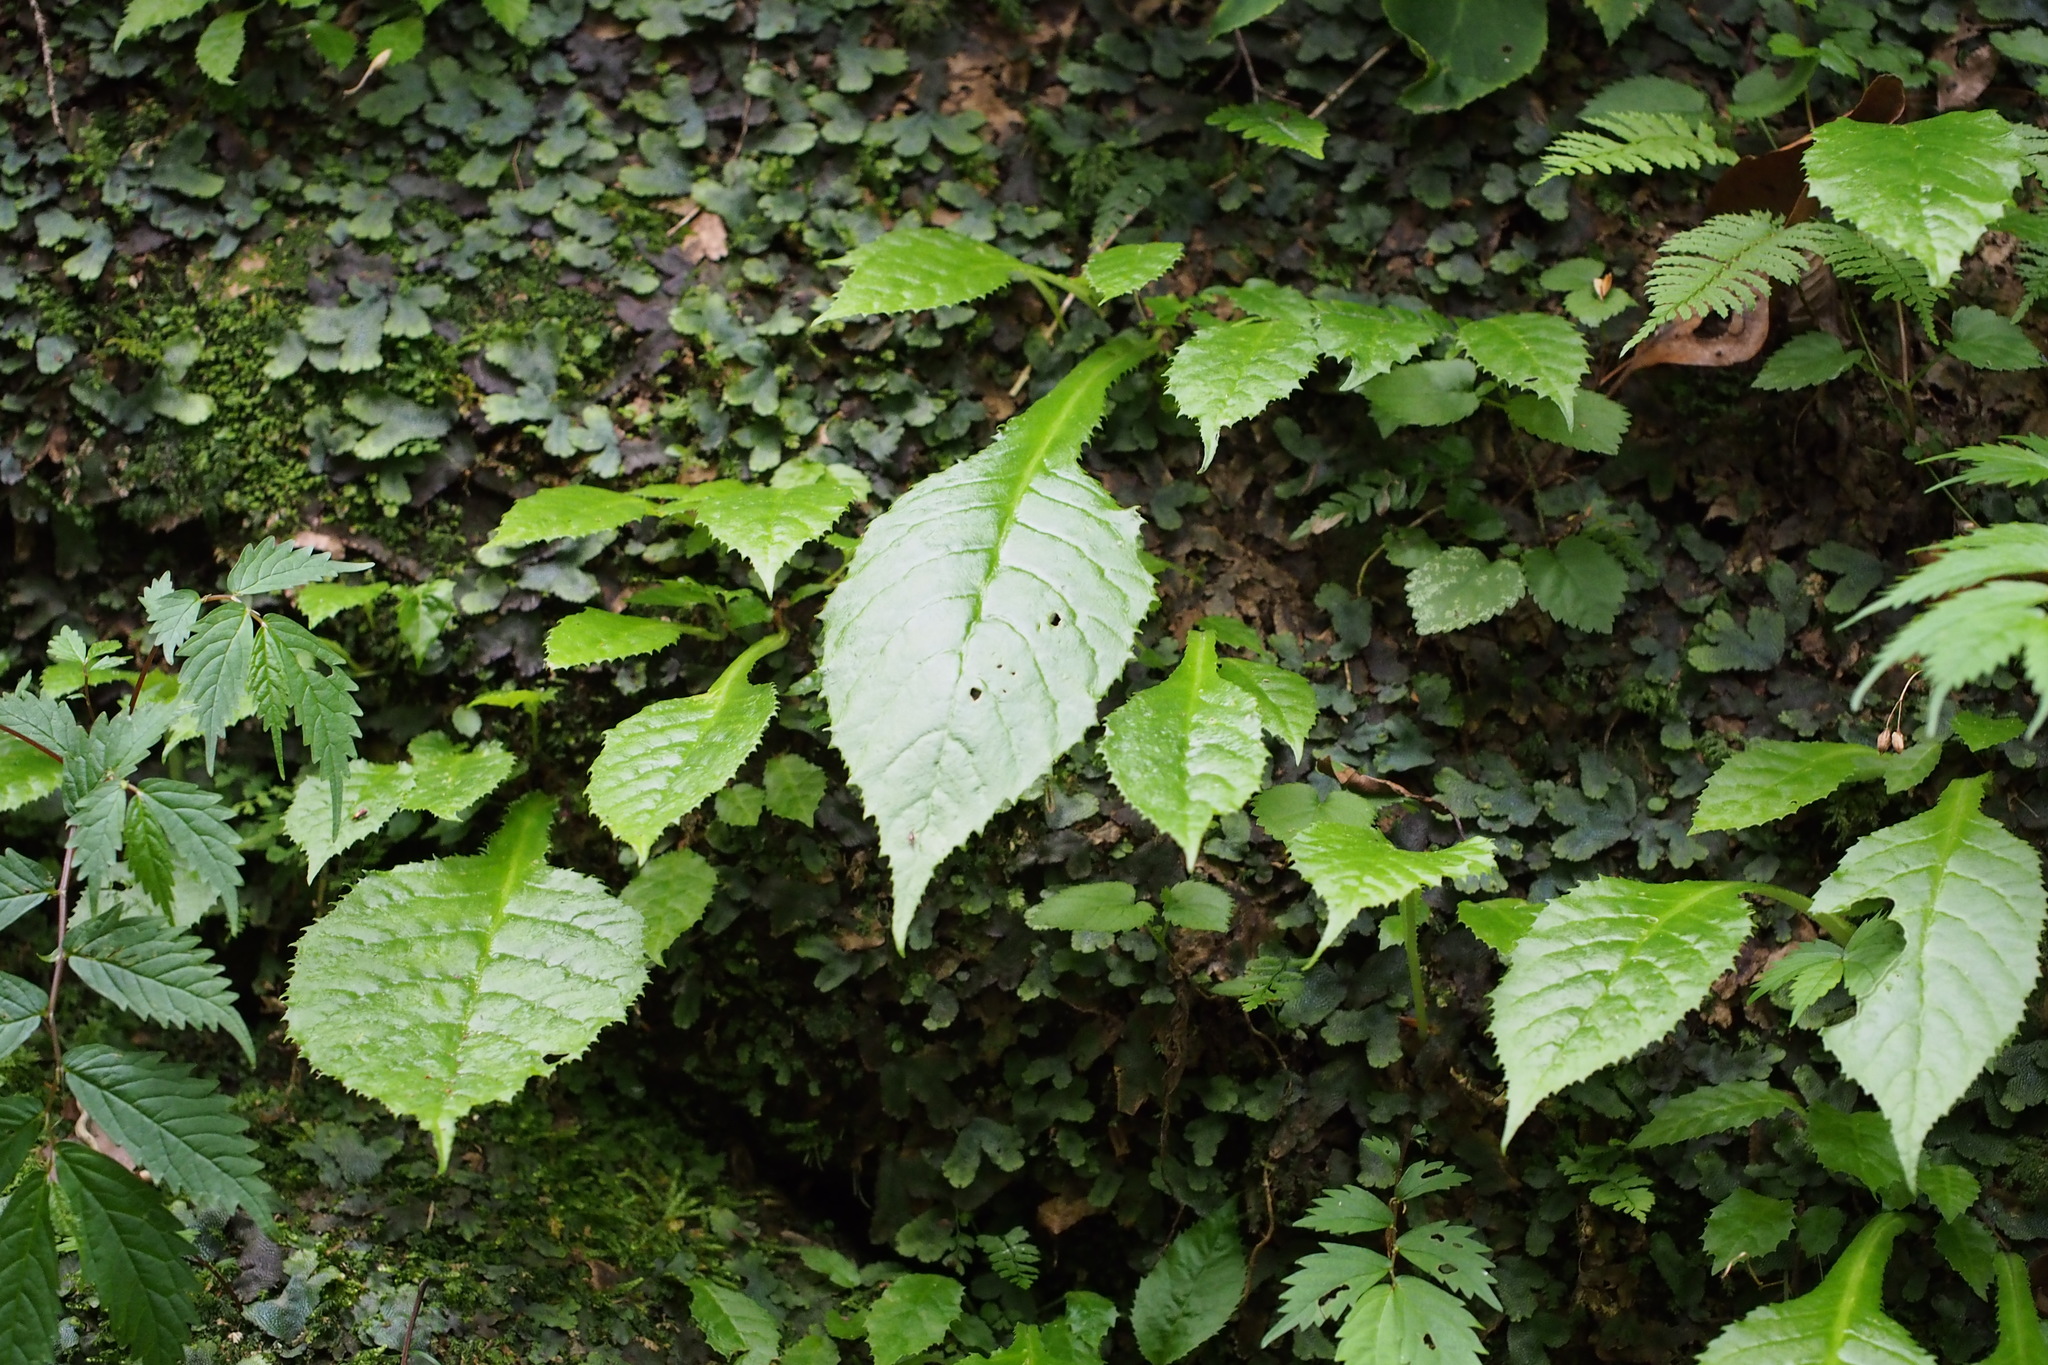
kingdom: Plantae
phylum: Tracheophyta
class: Magnoliopsida
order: Lamiales
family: Gesneriaceae
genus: Conandron
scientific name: Conandron ramondioides
